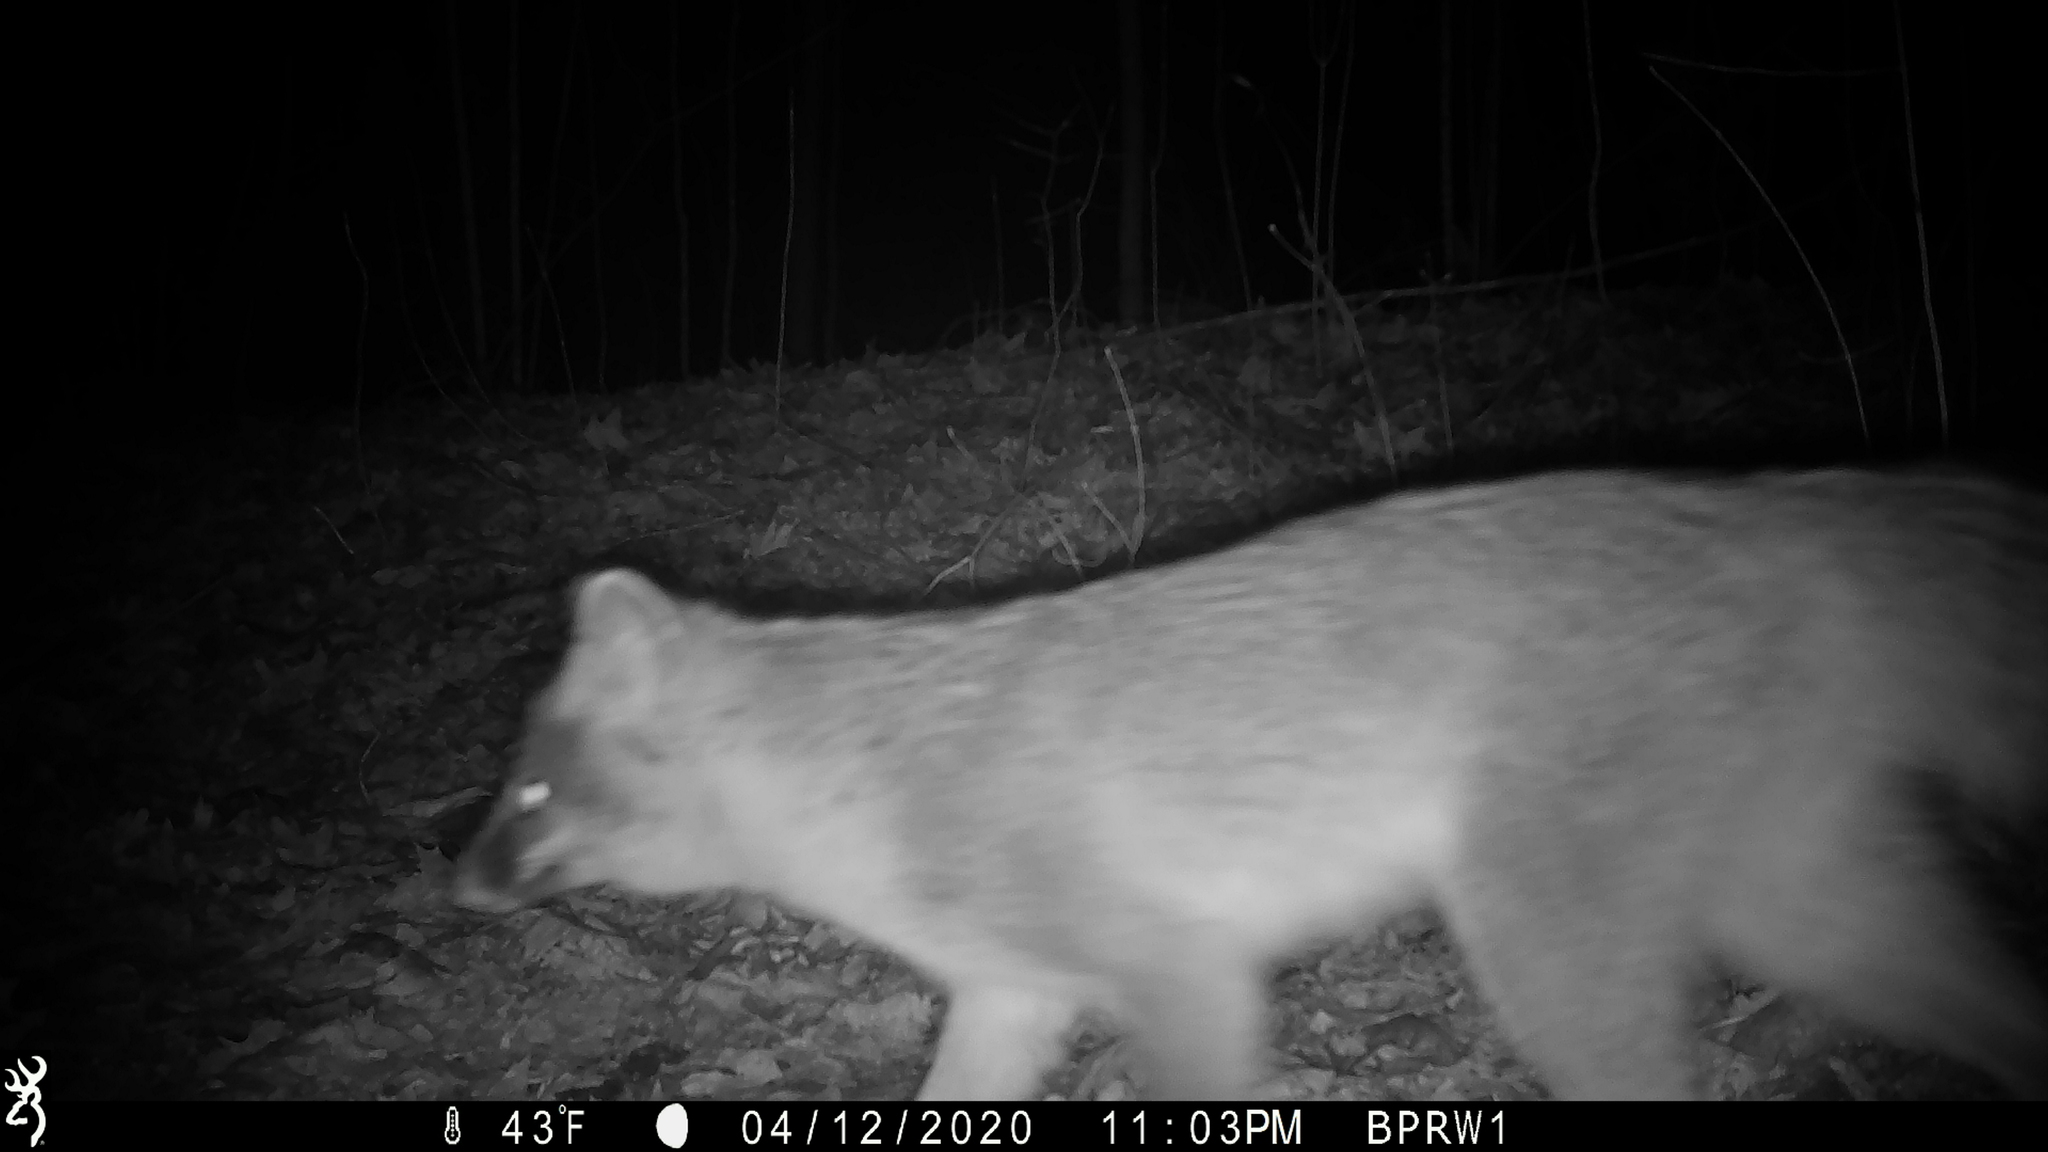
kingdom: Animalia
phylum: Chordata
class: Mammalia
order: Carnivora
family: Canidae
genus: Urocyon
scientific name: Urocyon cinereoargenteus
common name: Gray fox
